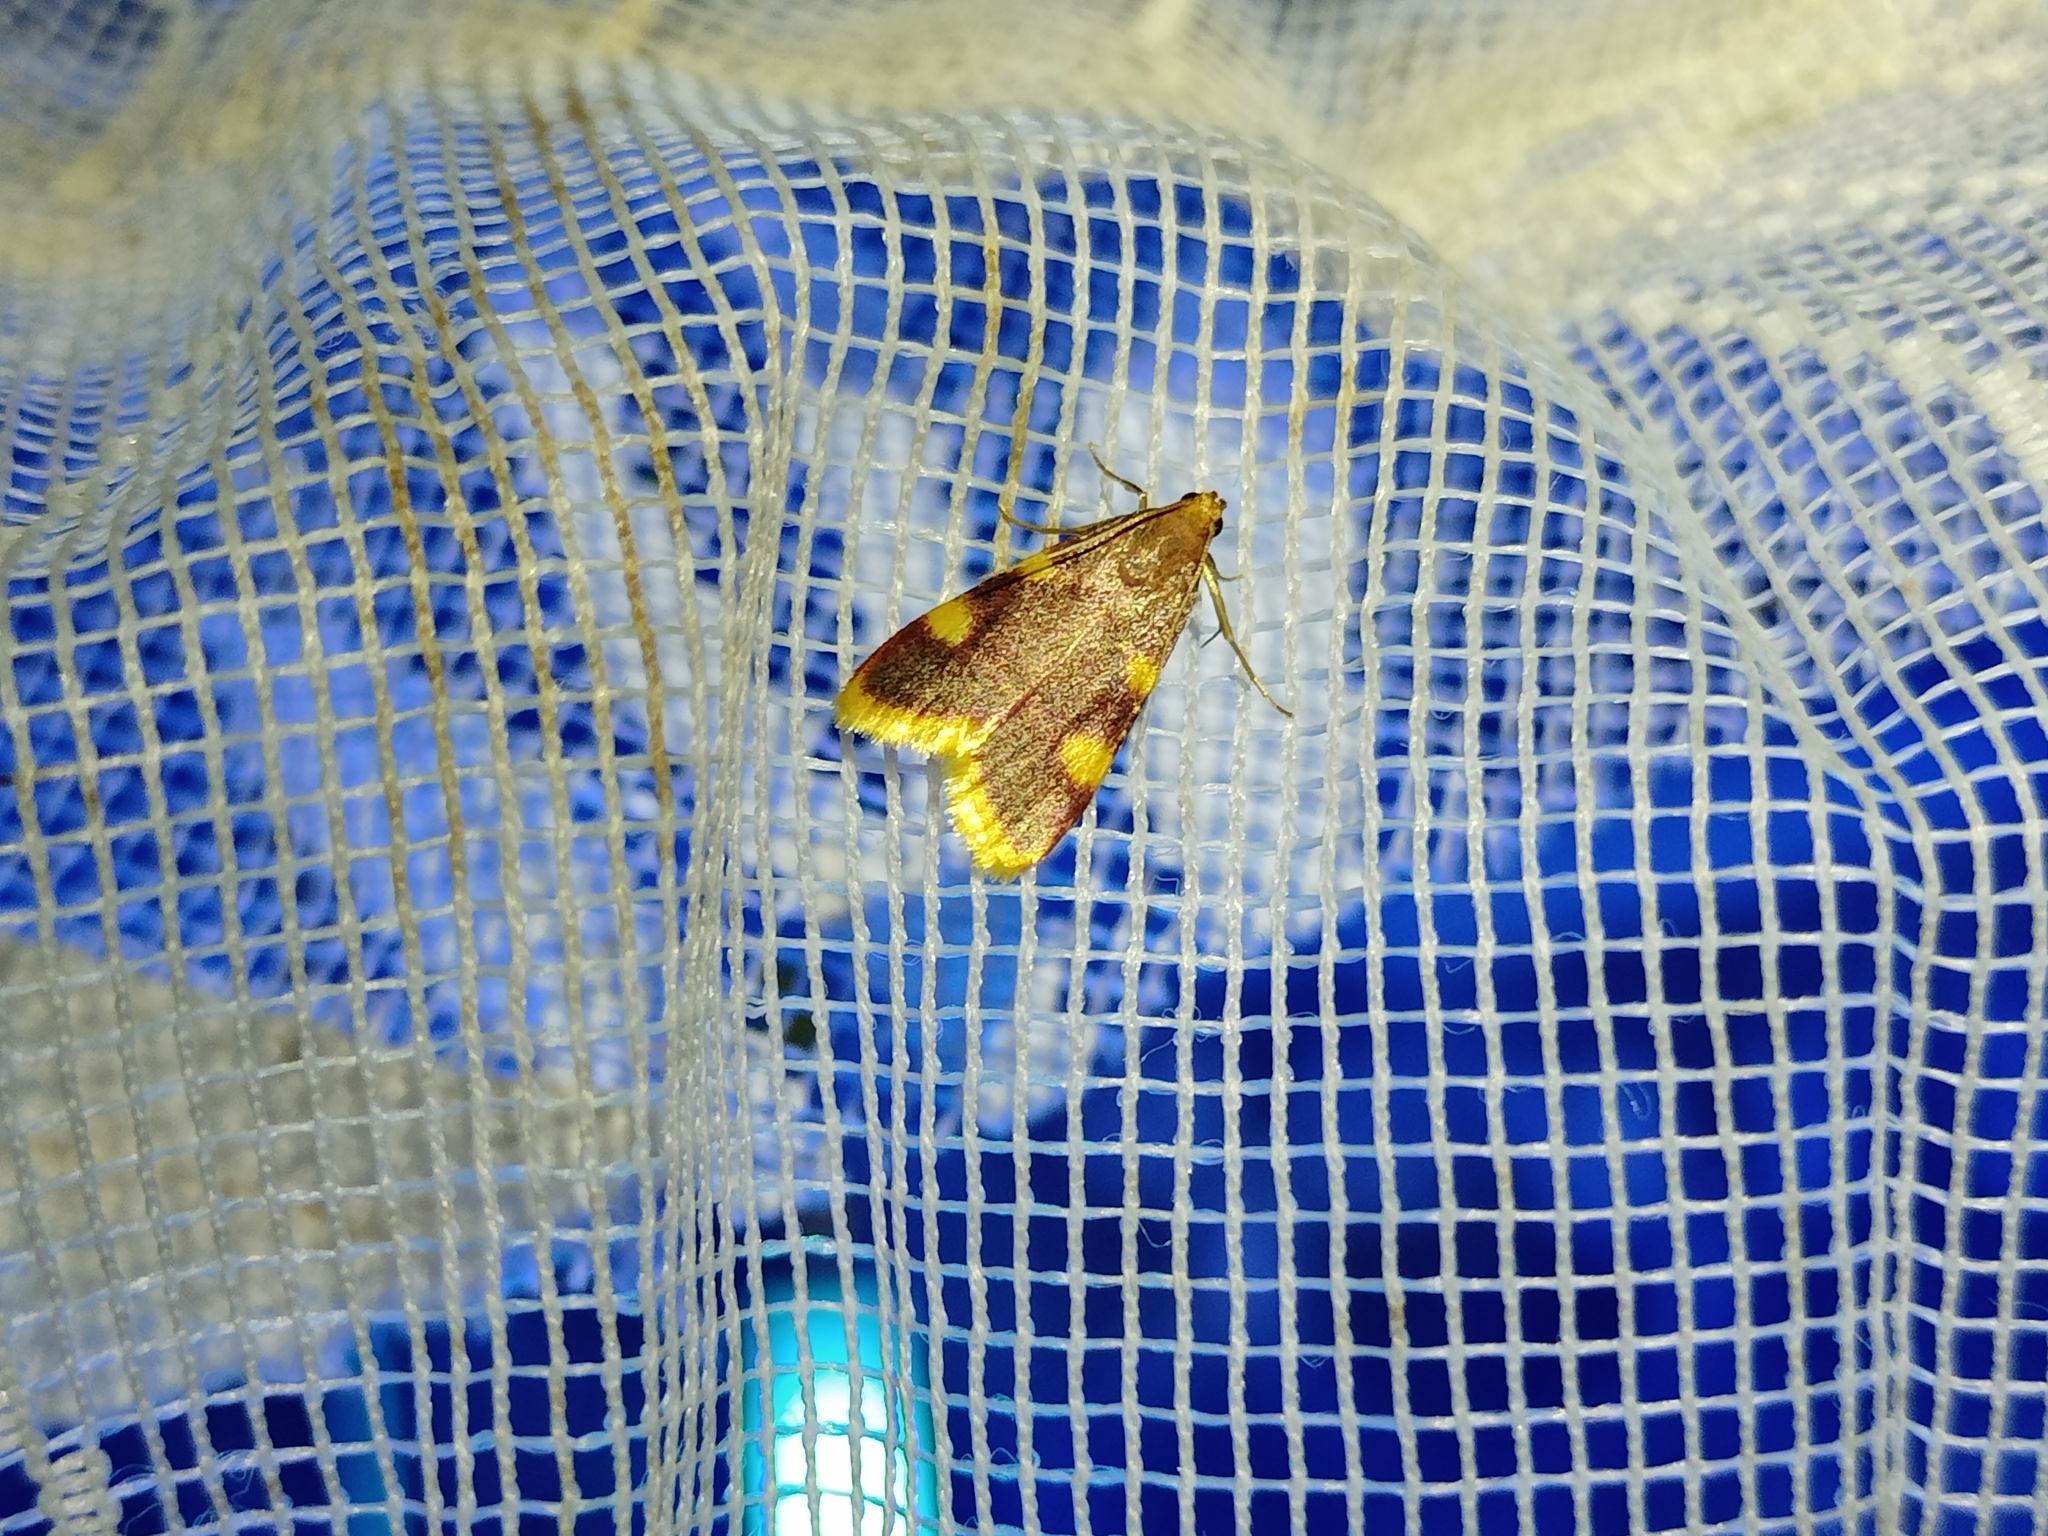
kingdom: Animalia
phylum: Arthropoda
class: Insecta
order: Lepidoptera
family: Pyralidae
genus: Hypsopygia
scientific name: Hypsopygia costalis
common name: Gold triangle
